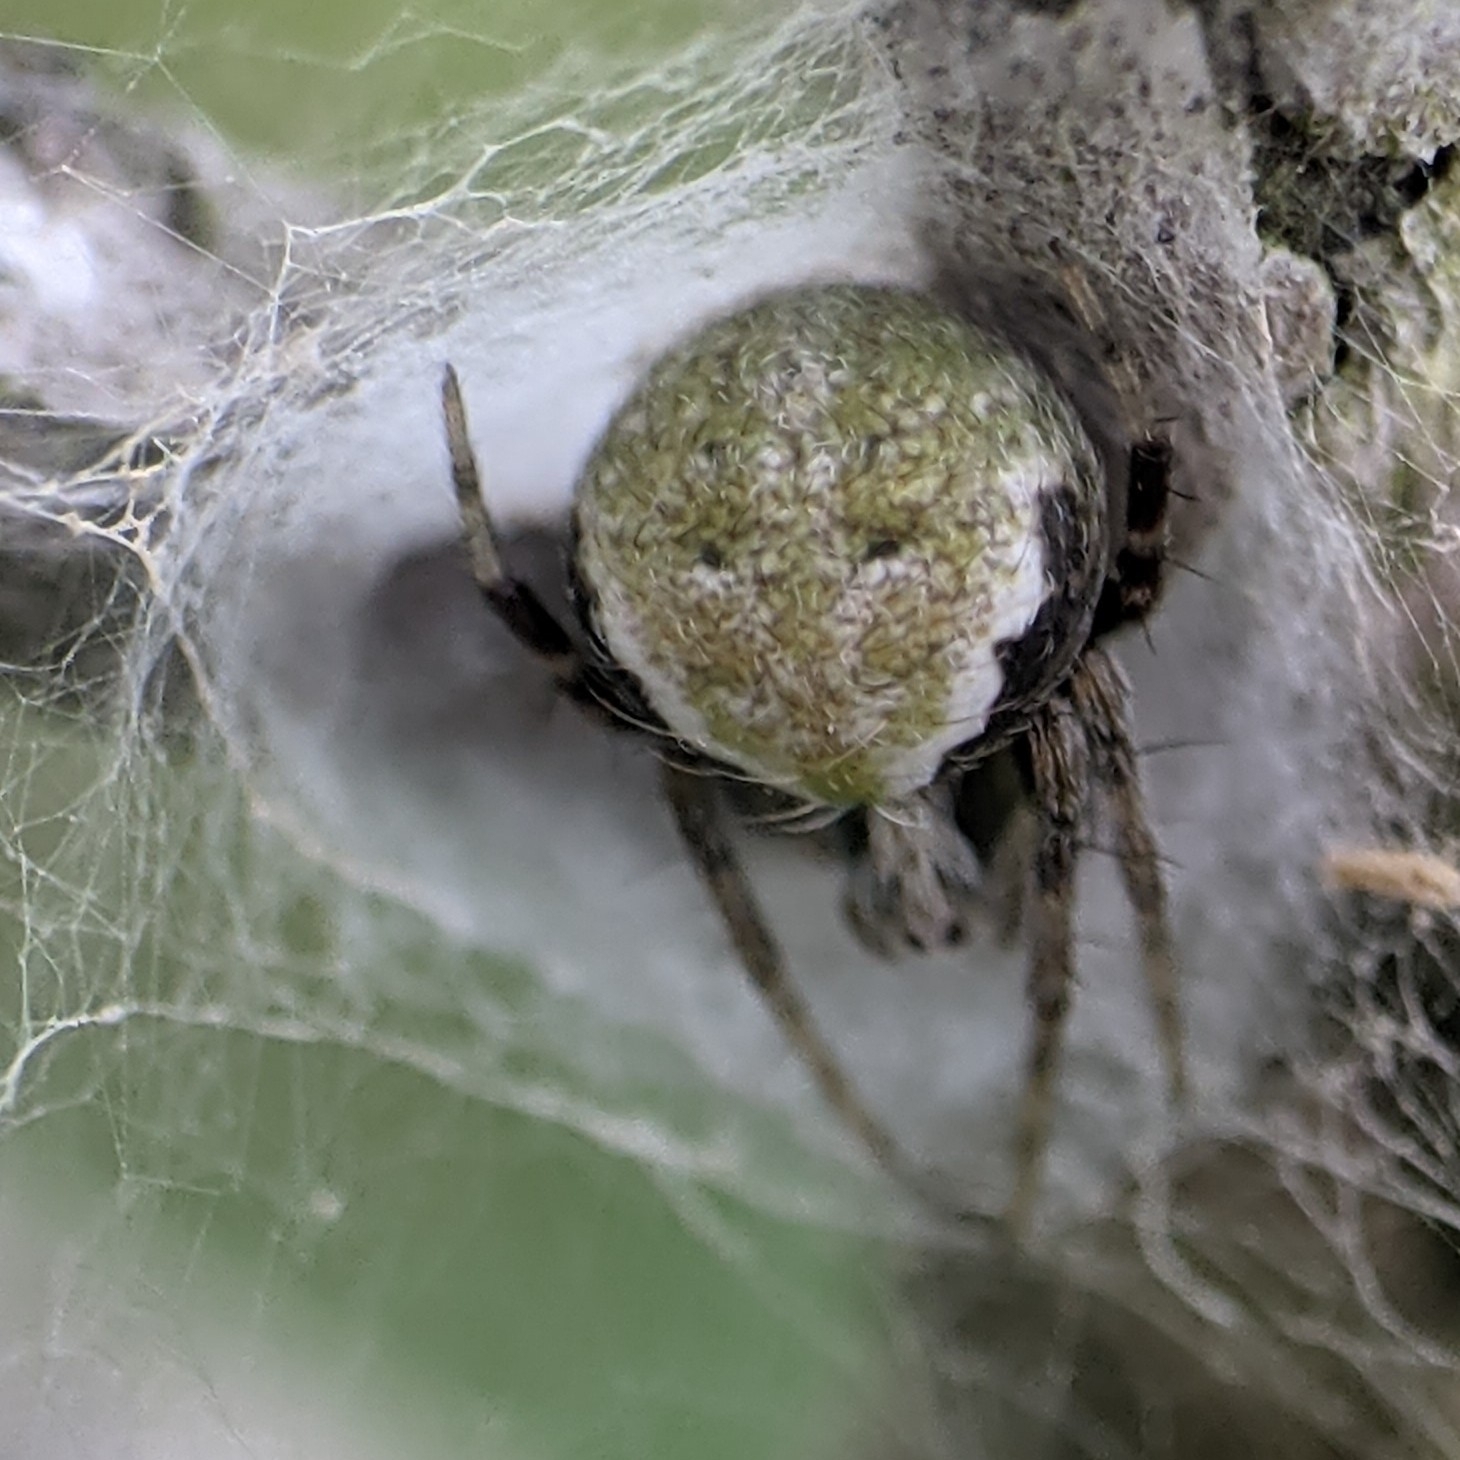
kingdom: Animalia
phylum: Arthropoda
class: Arachnida
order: Araneae
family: Araneidae
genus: Araneus
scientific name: Araneus detrimentosus
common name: Orb weavers
